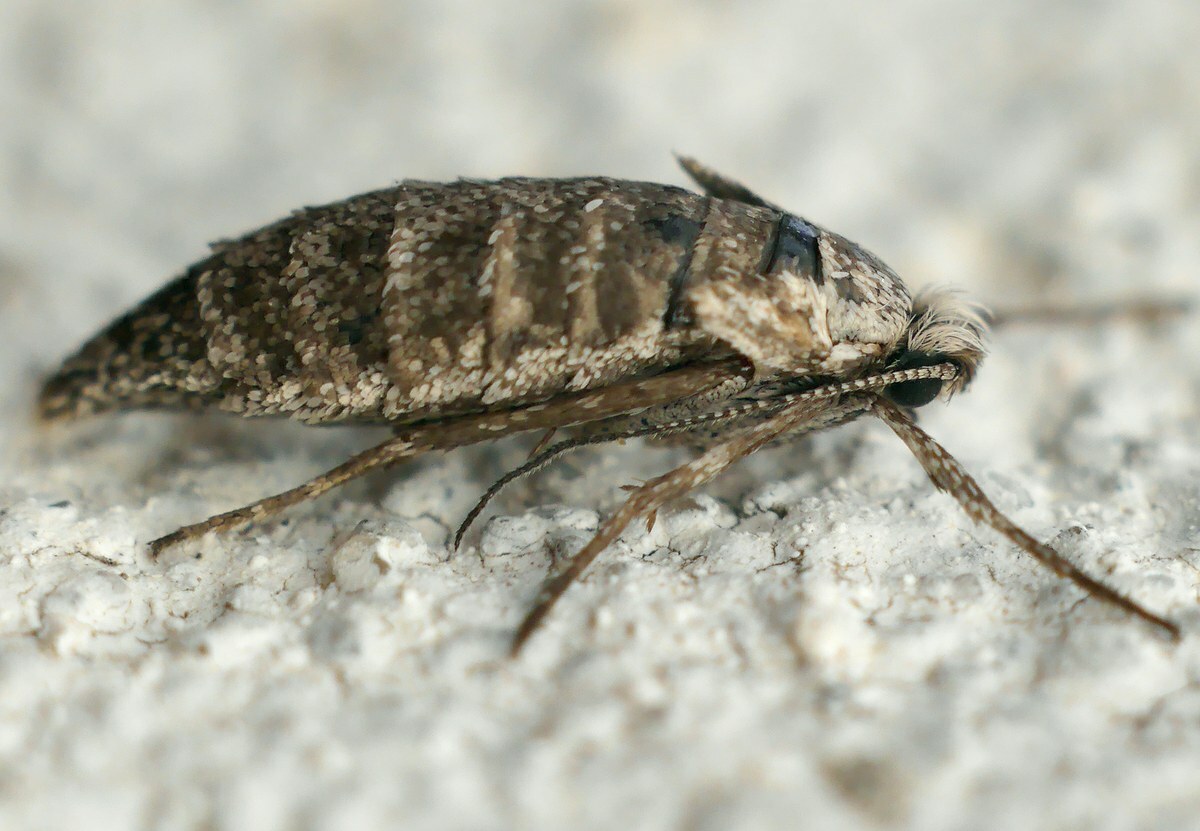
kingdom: Animalia
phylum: Arthropoda
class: Insecta
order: Lepidoptera
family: Eriocottidae
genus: Deuterotinea
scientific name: Deuterotinea casanella
